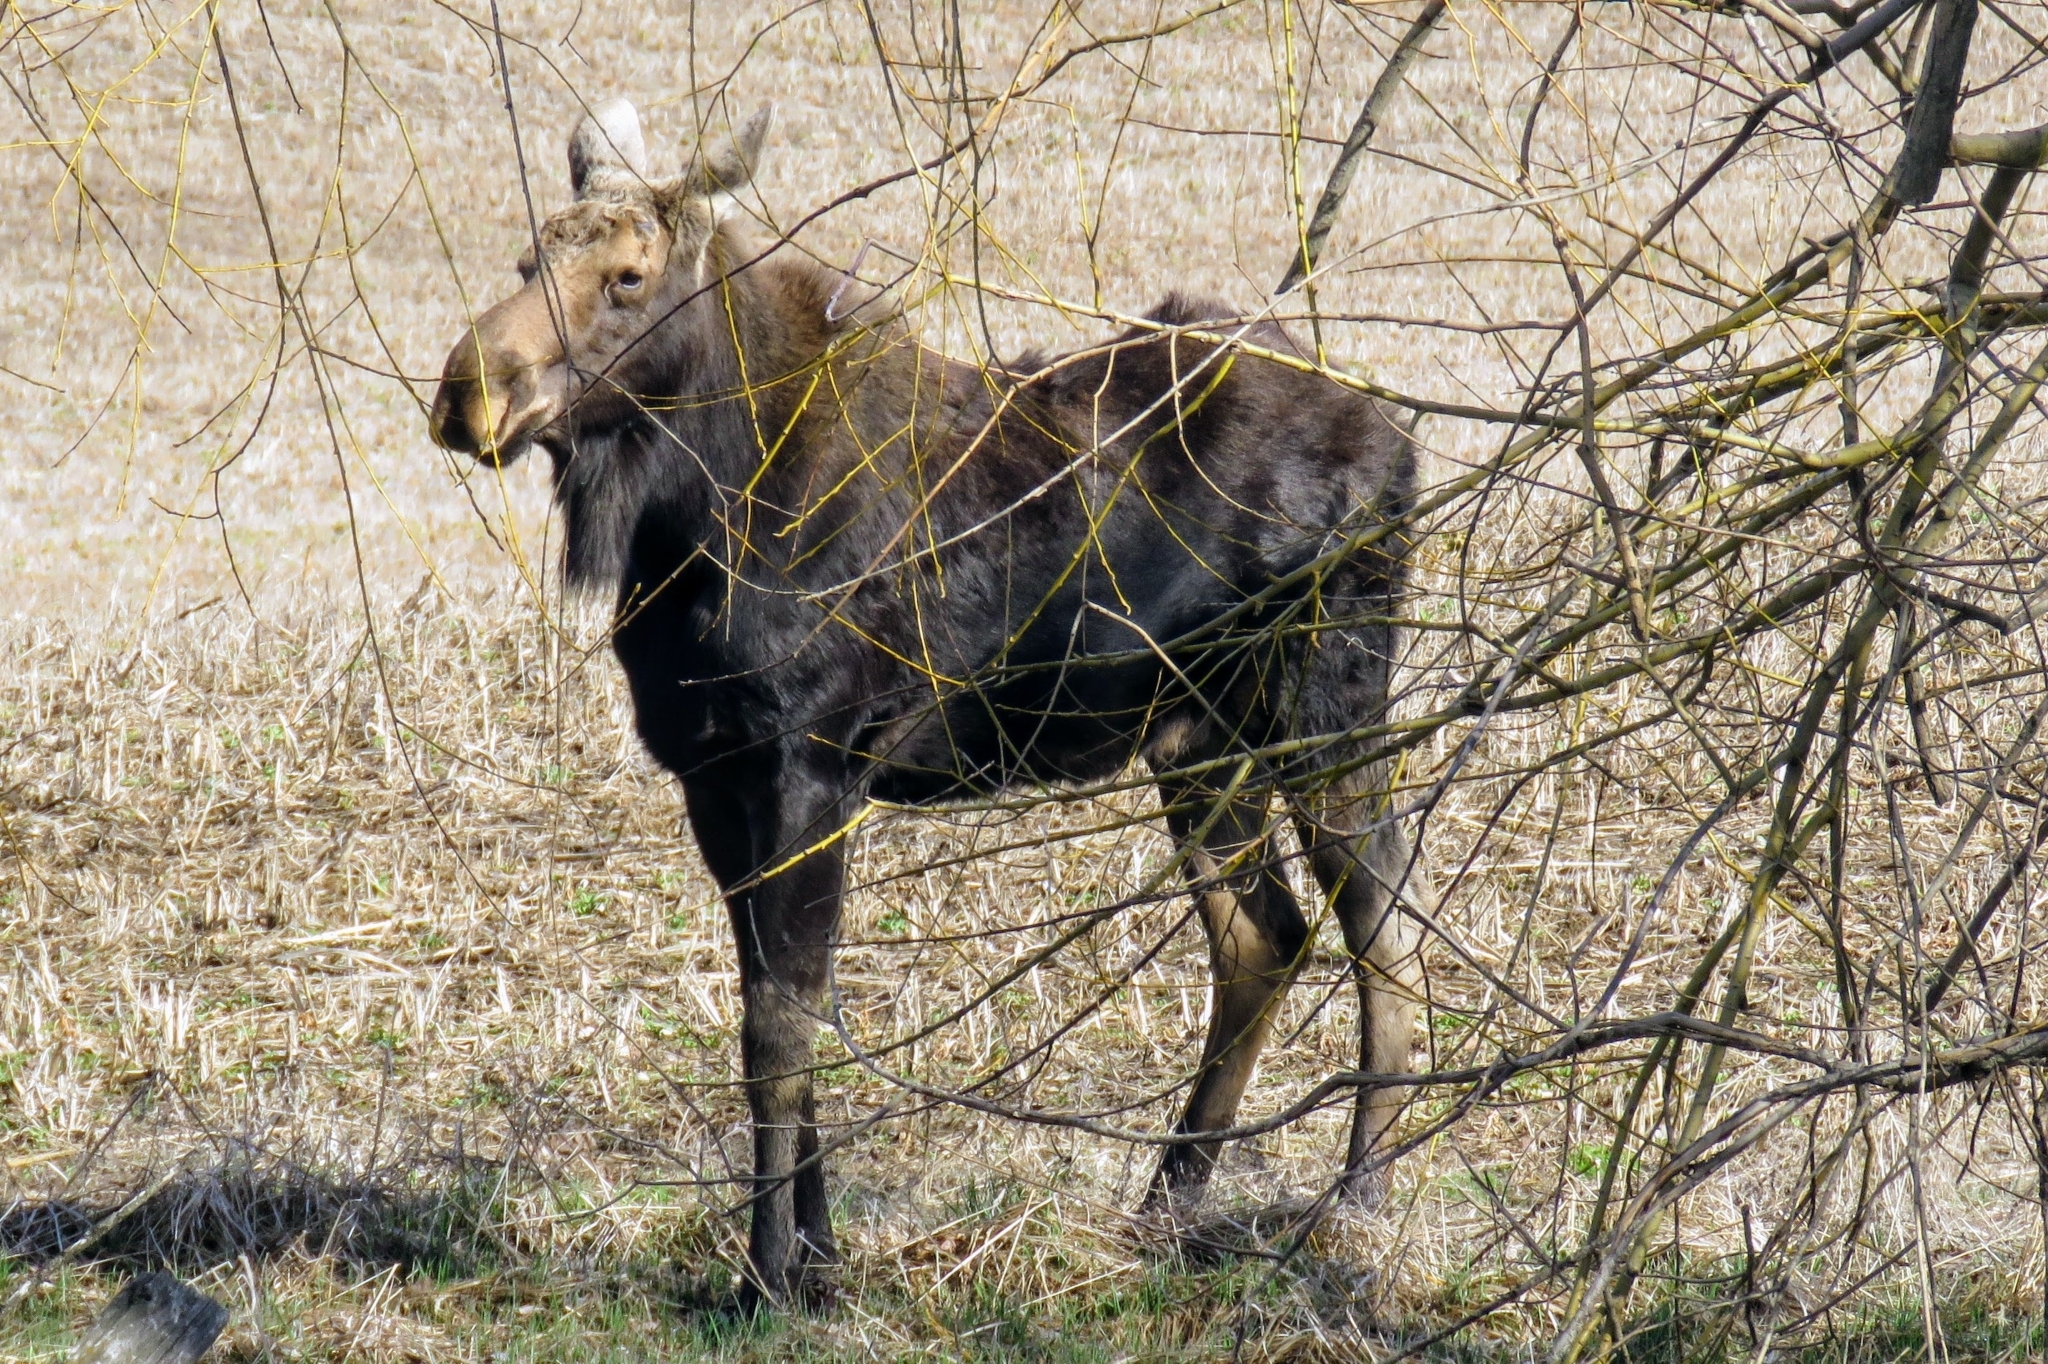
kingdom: Animalia
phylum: Chordata
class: Mammalia
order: Artiodactyla
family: Cervidae
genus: Alces
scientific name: Alces alces
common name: Moose
